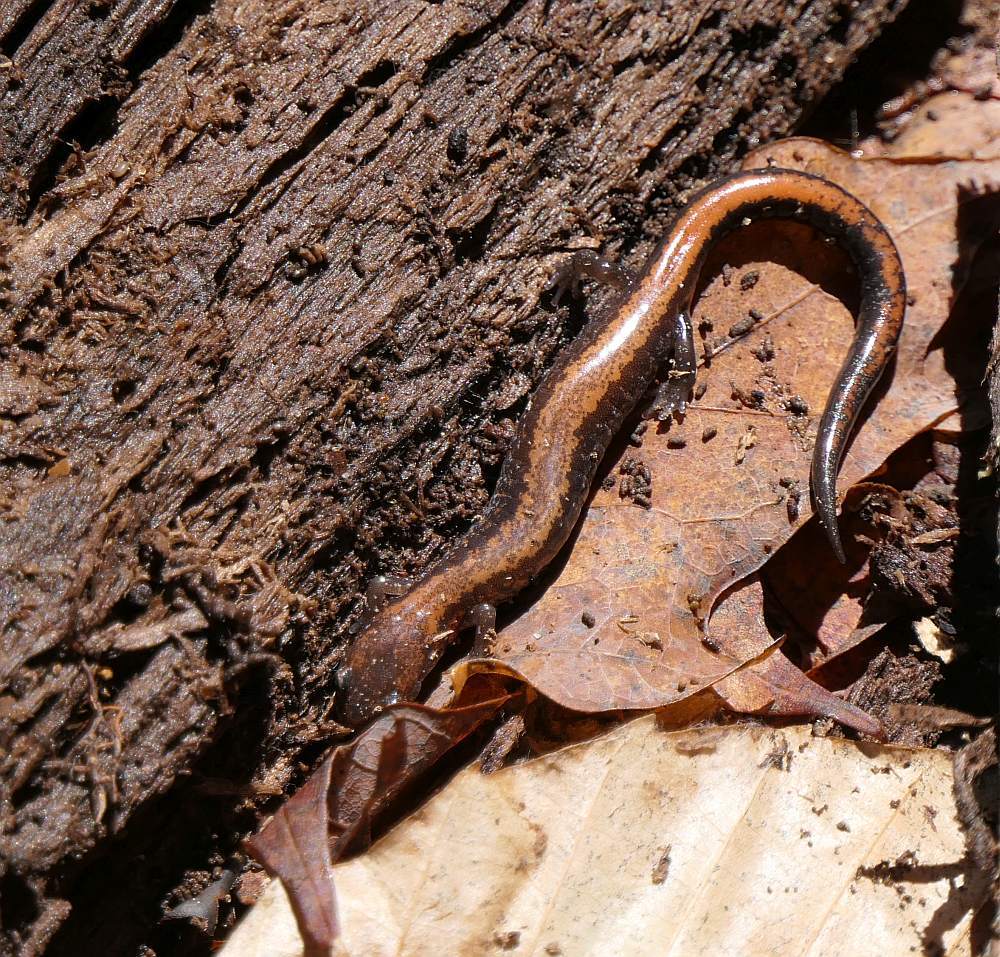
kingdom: Animalia
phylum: Chordata
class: Amphibia
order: Caudata
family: Plethodontidae
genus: Plethodon
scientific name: Plethodon cinereus
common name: Redback salamander
